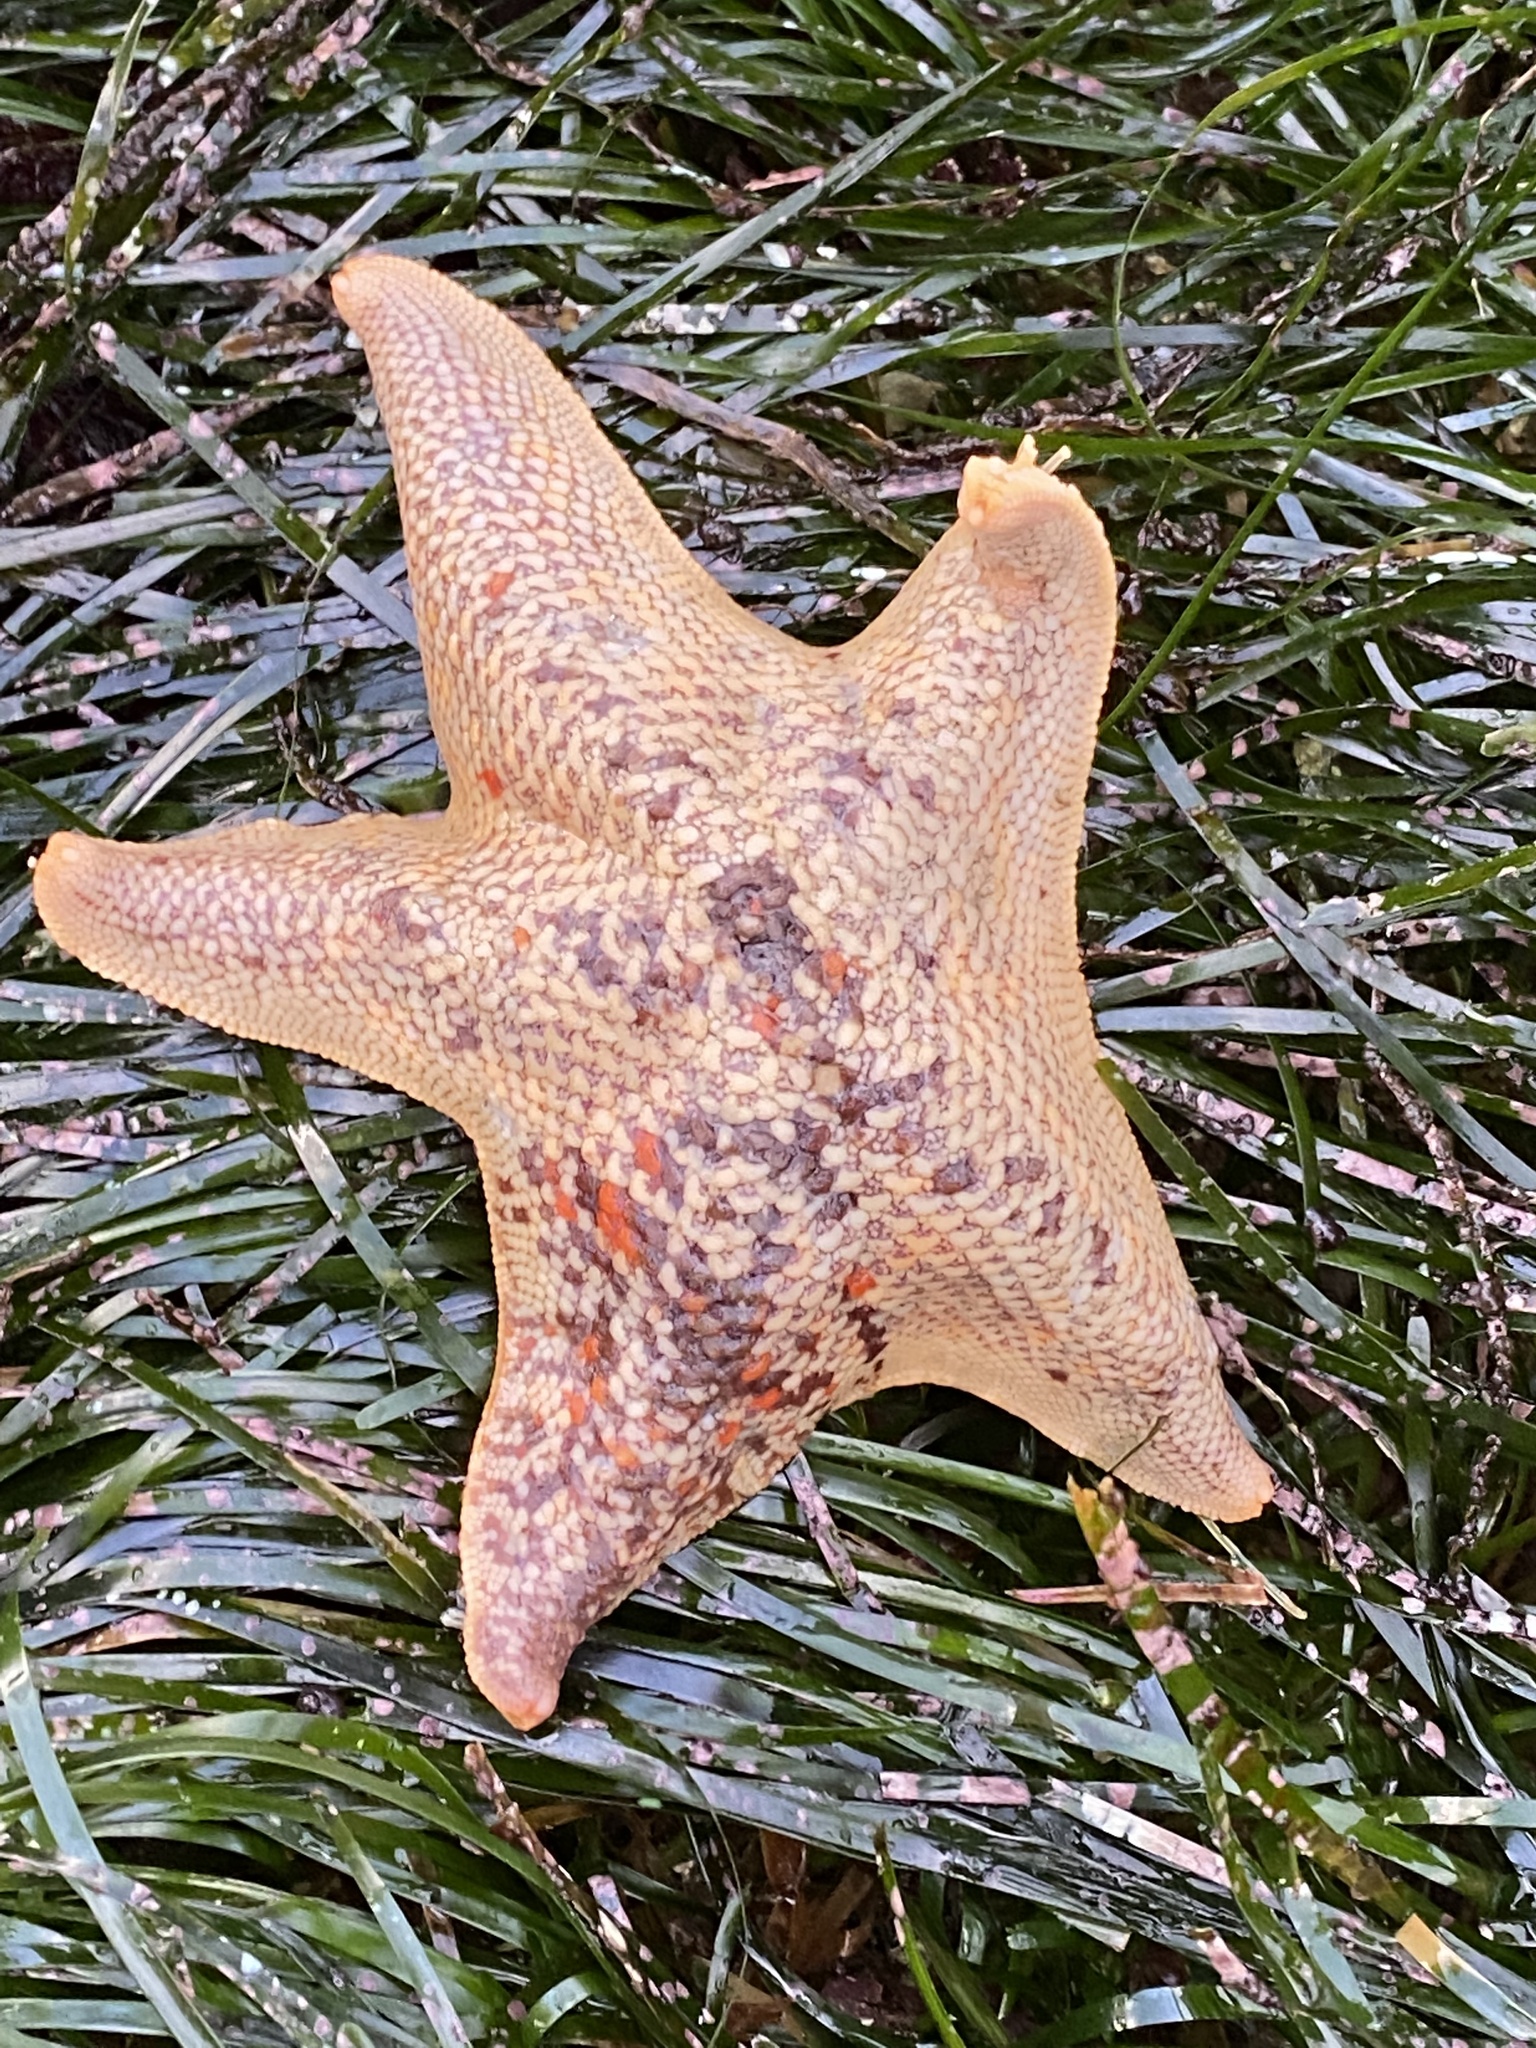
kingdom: Animalia
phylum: Echinodermata
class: Asteroidea
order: Valvatida
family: Asterinidae
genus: Patiria
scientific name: Patiria miniata
